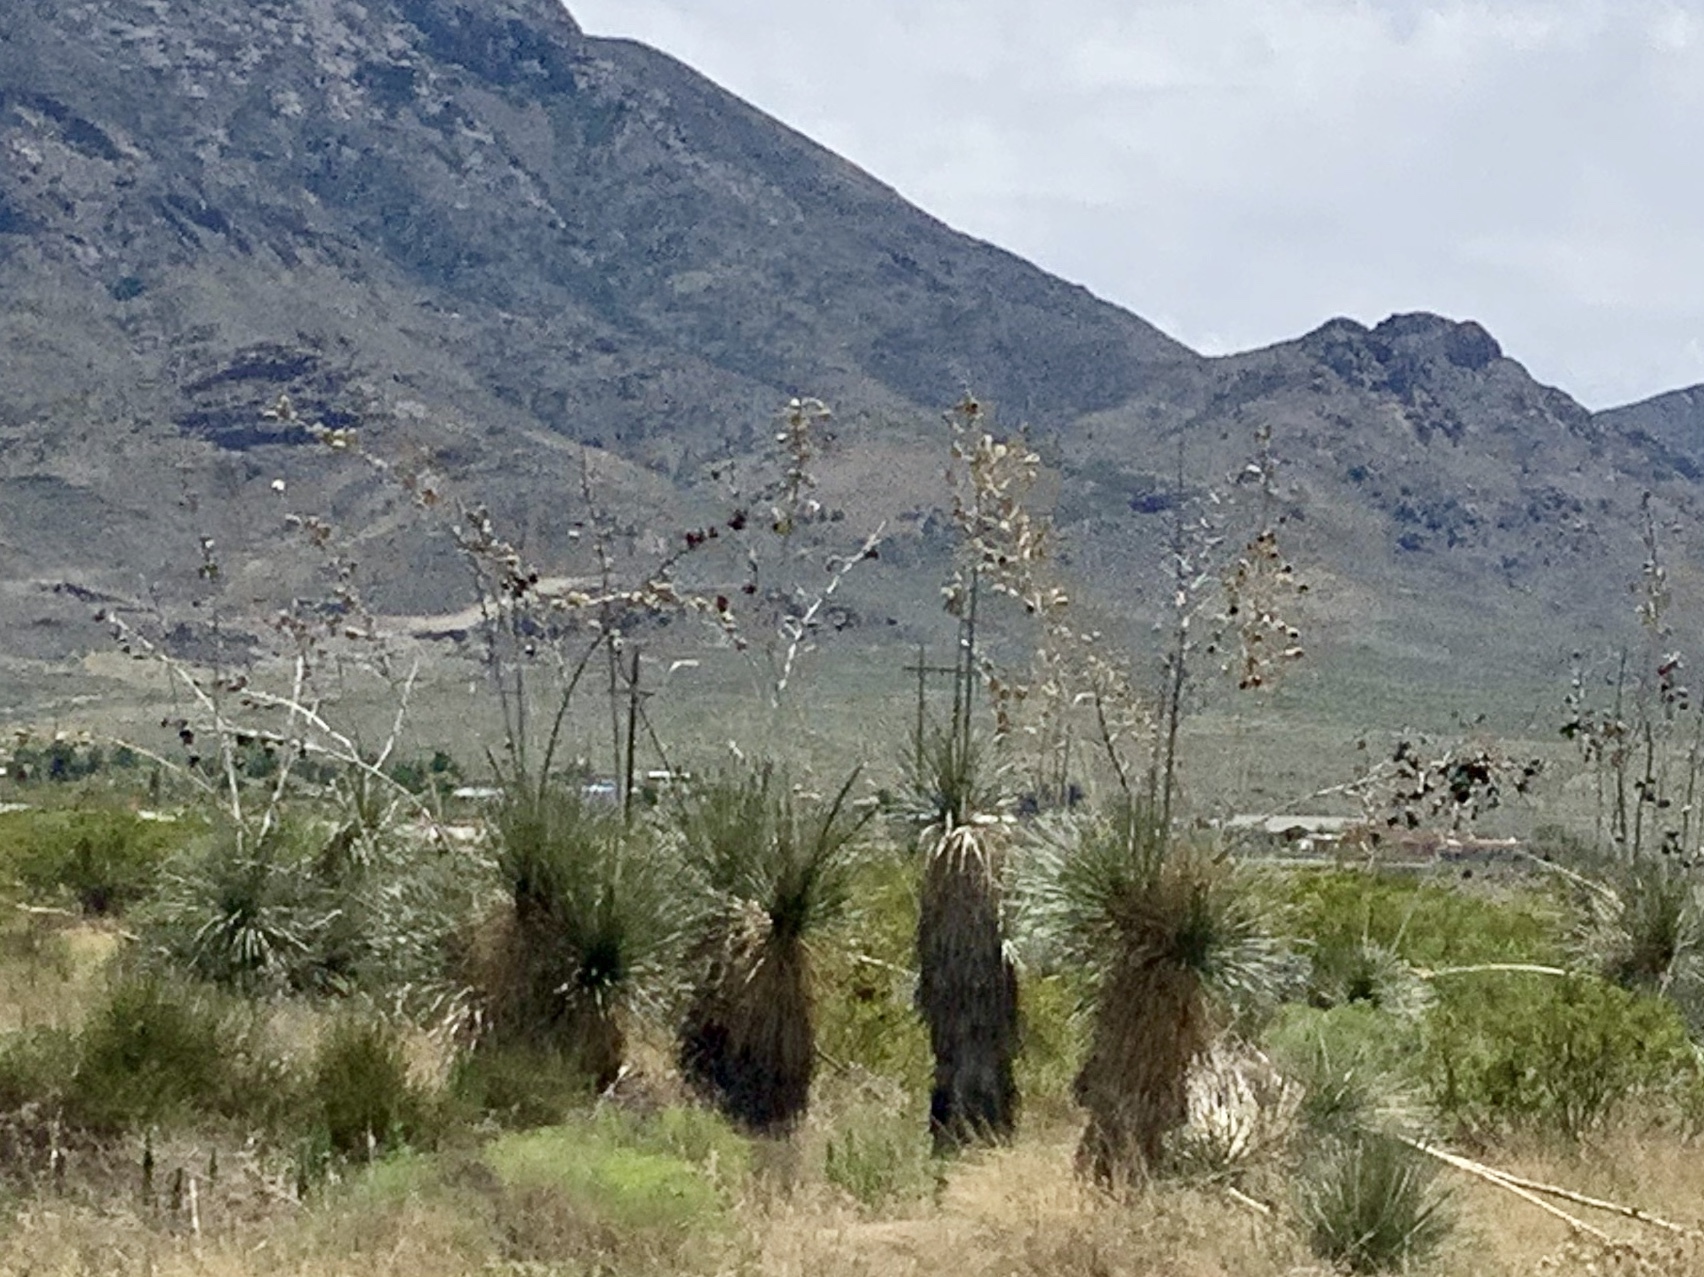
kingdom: Plantae
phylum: Tracheophyta
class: Liliopsida
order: Asparagales
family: Asparagaceae
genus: Yucca
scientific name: Yucca elata
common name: Palmella
